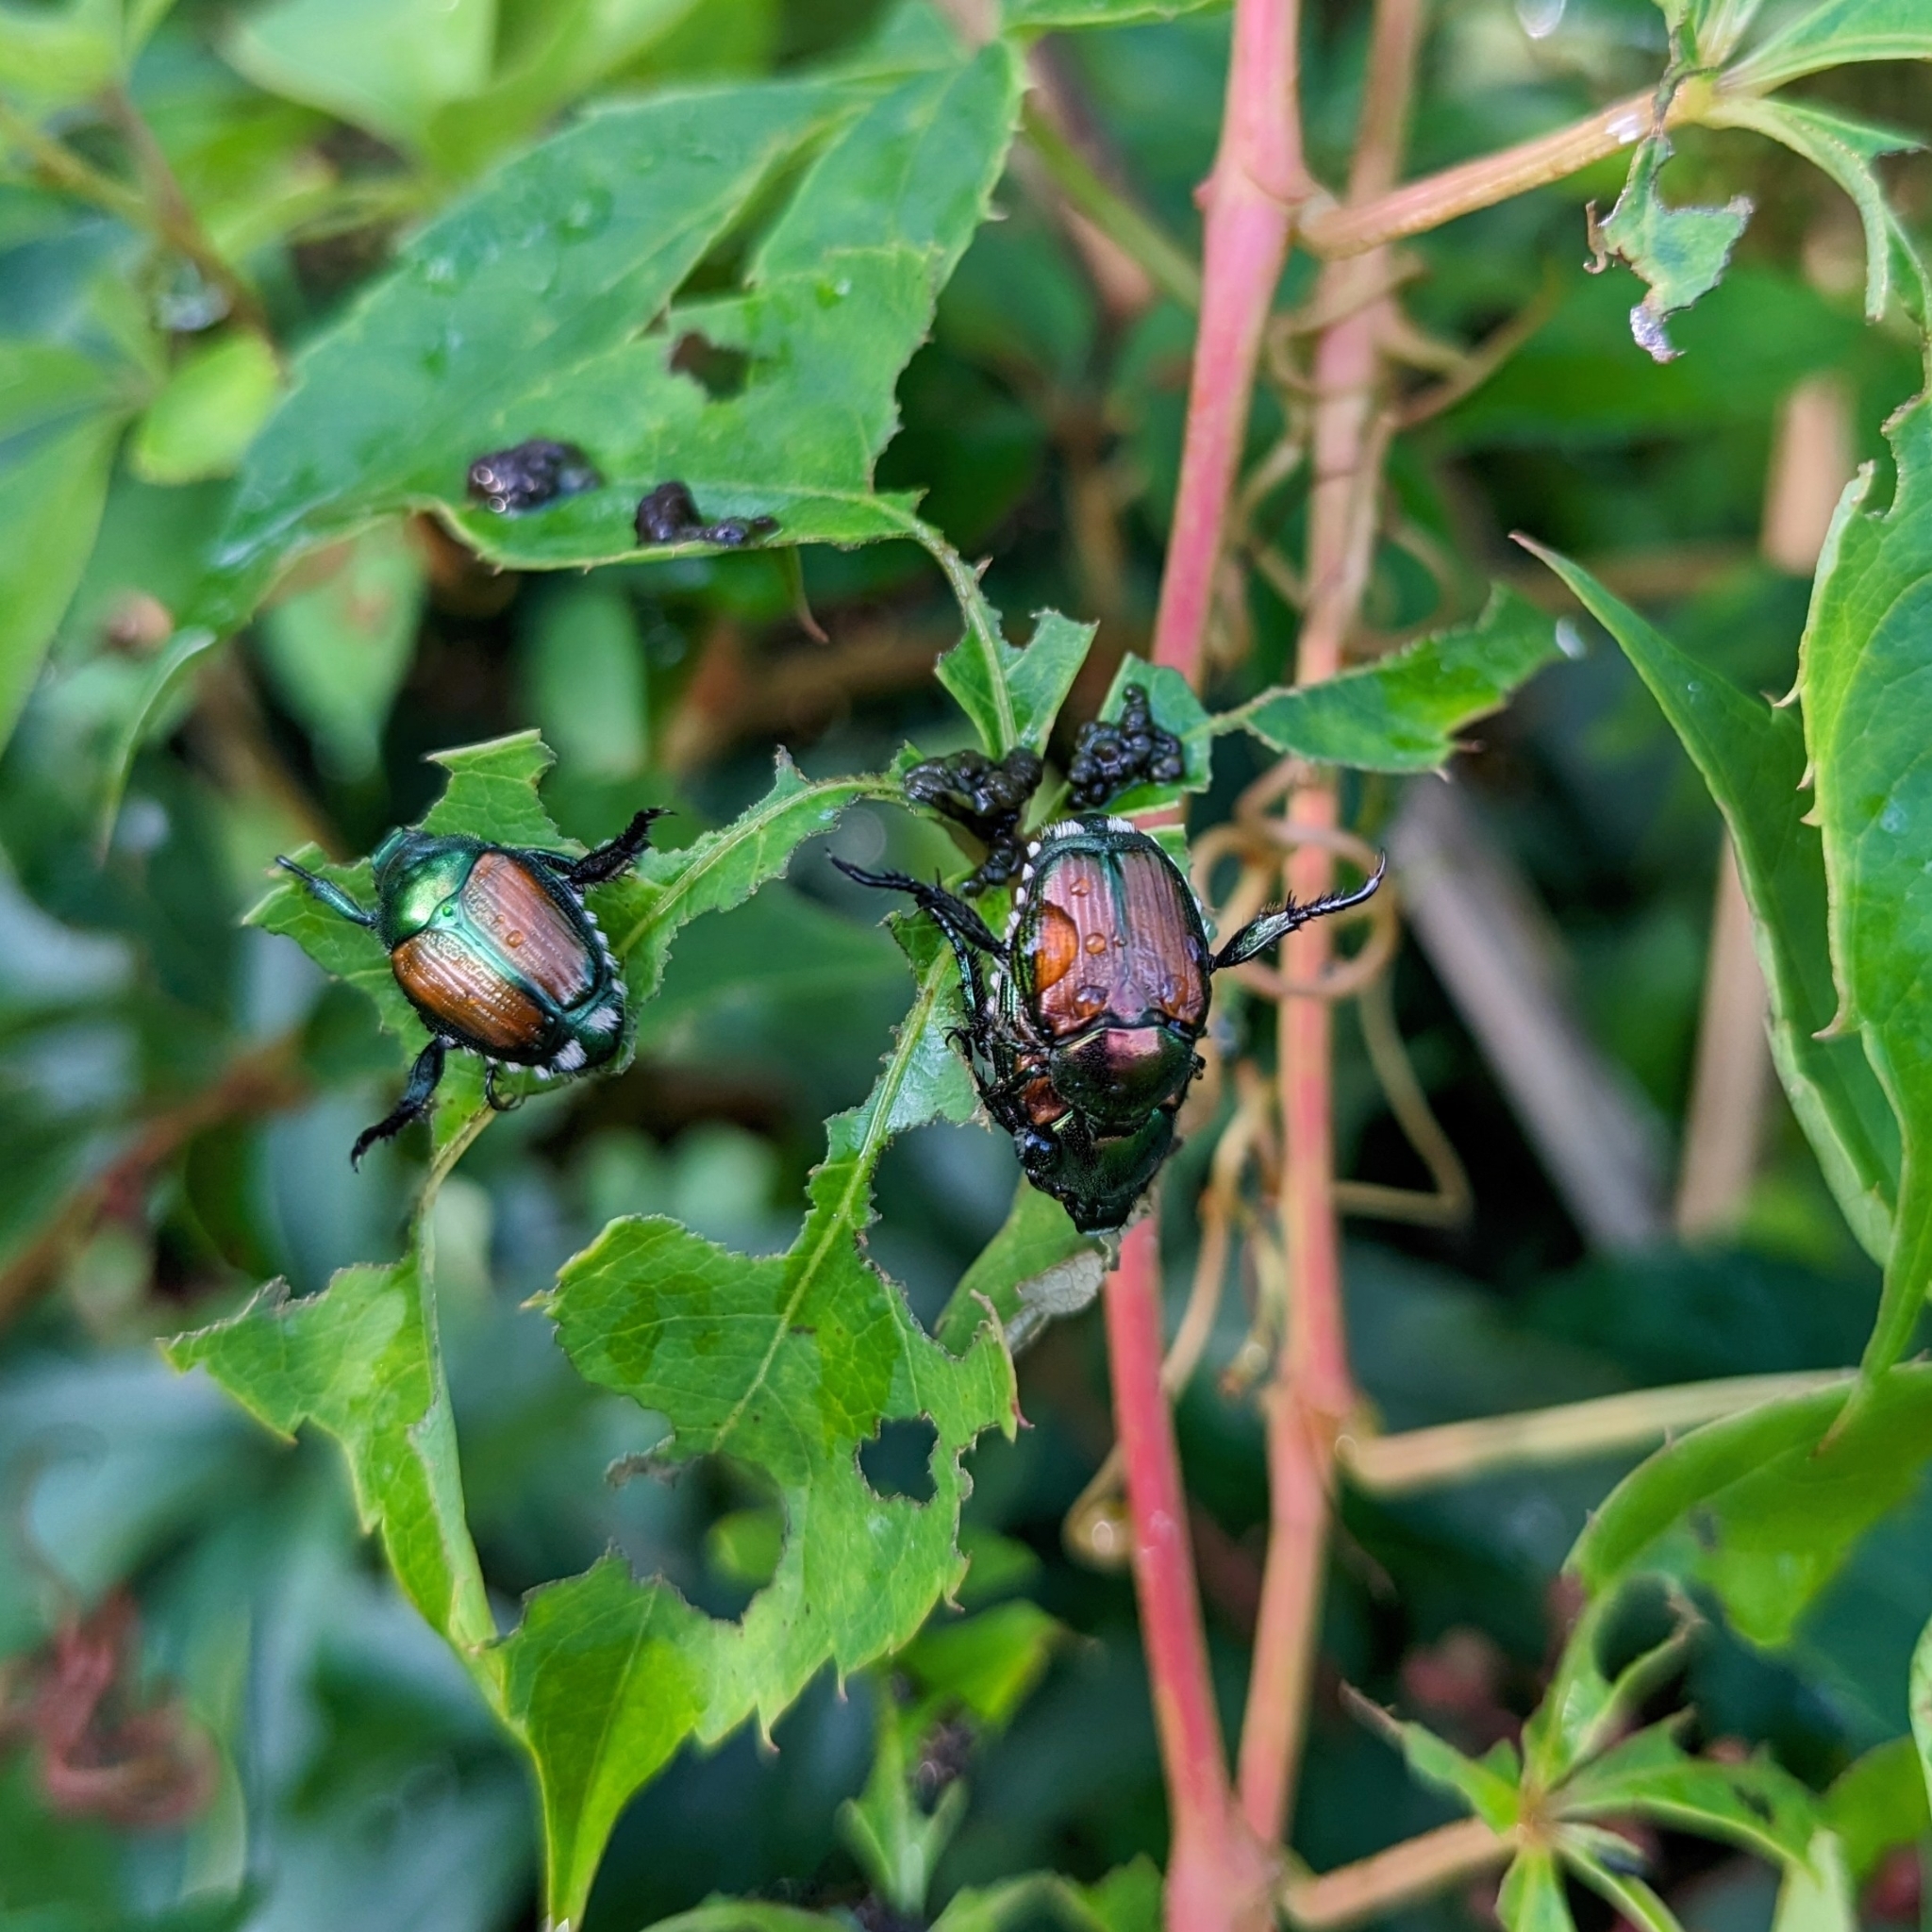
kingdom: Animalia
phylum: Arthropoda
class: Insecta
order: Coleoptera
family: Scarabaeidae
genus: Popillia
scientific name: Popillia japonica
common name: Japanese beetle
